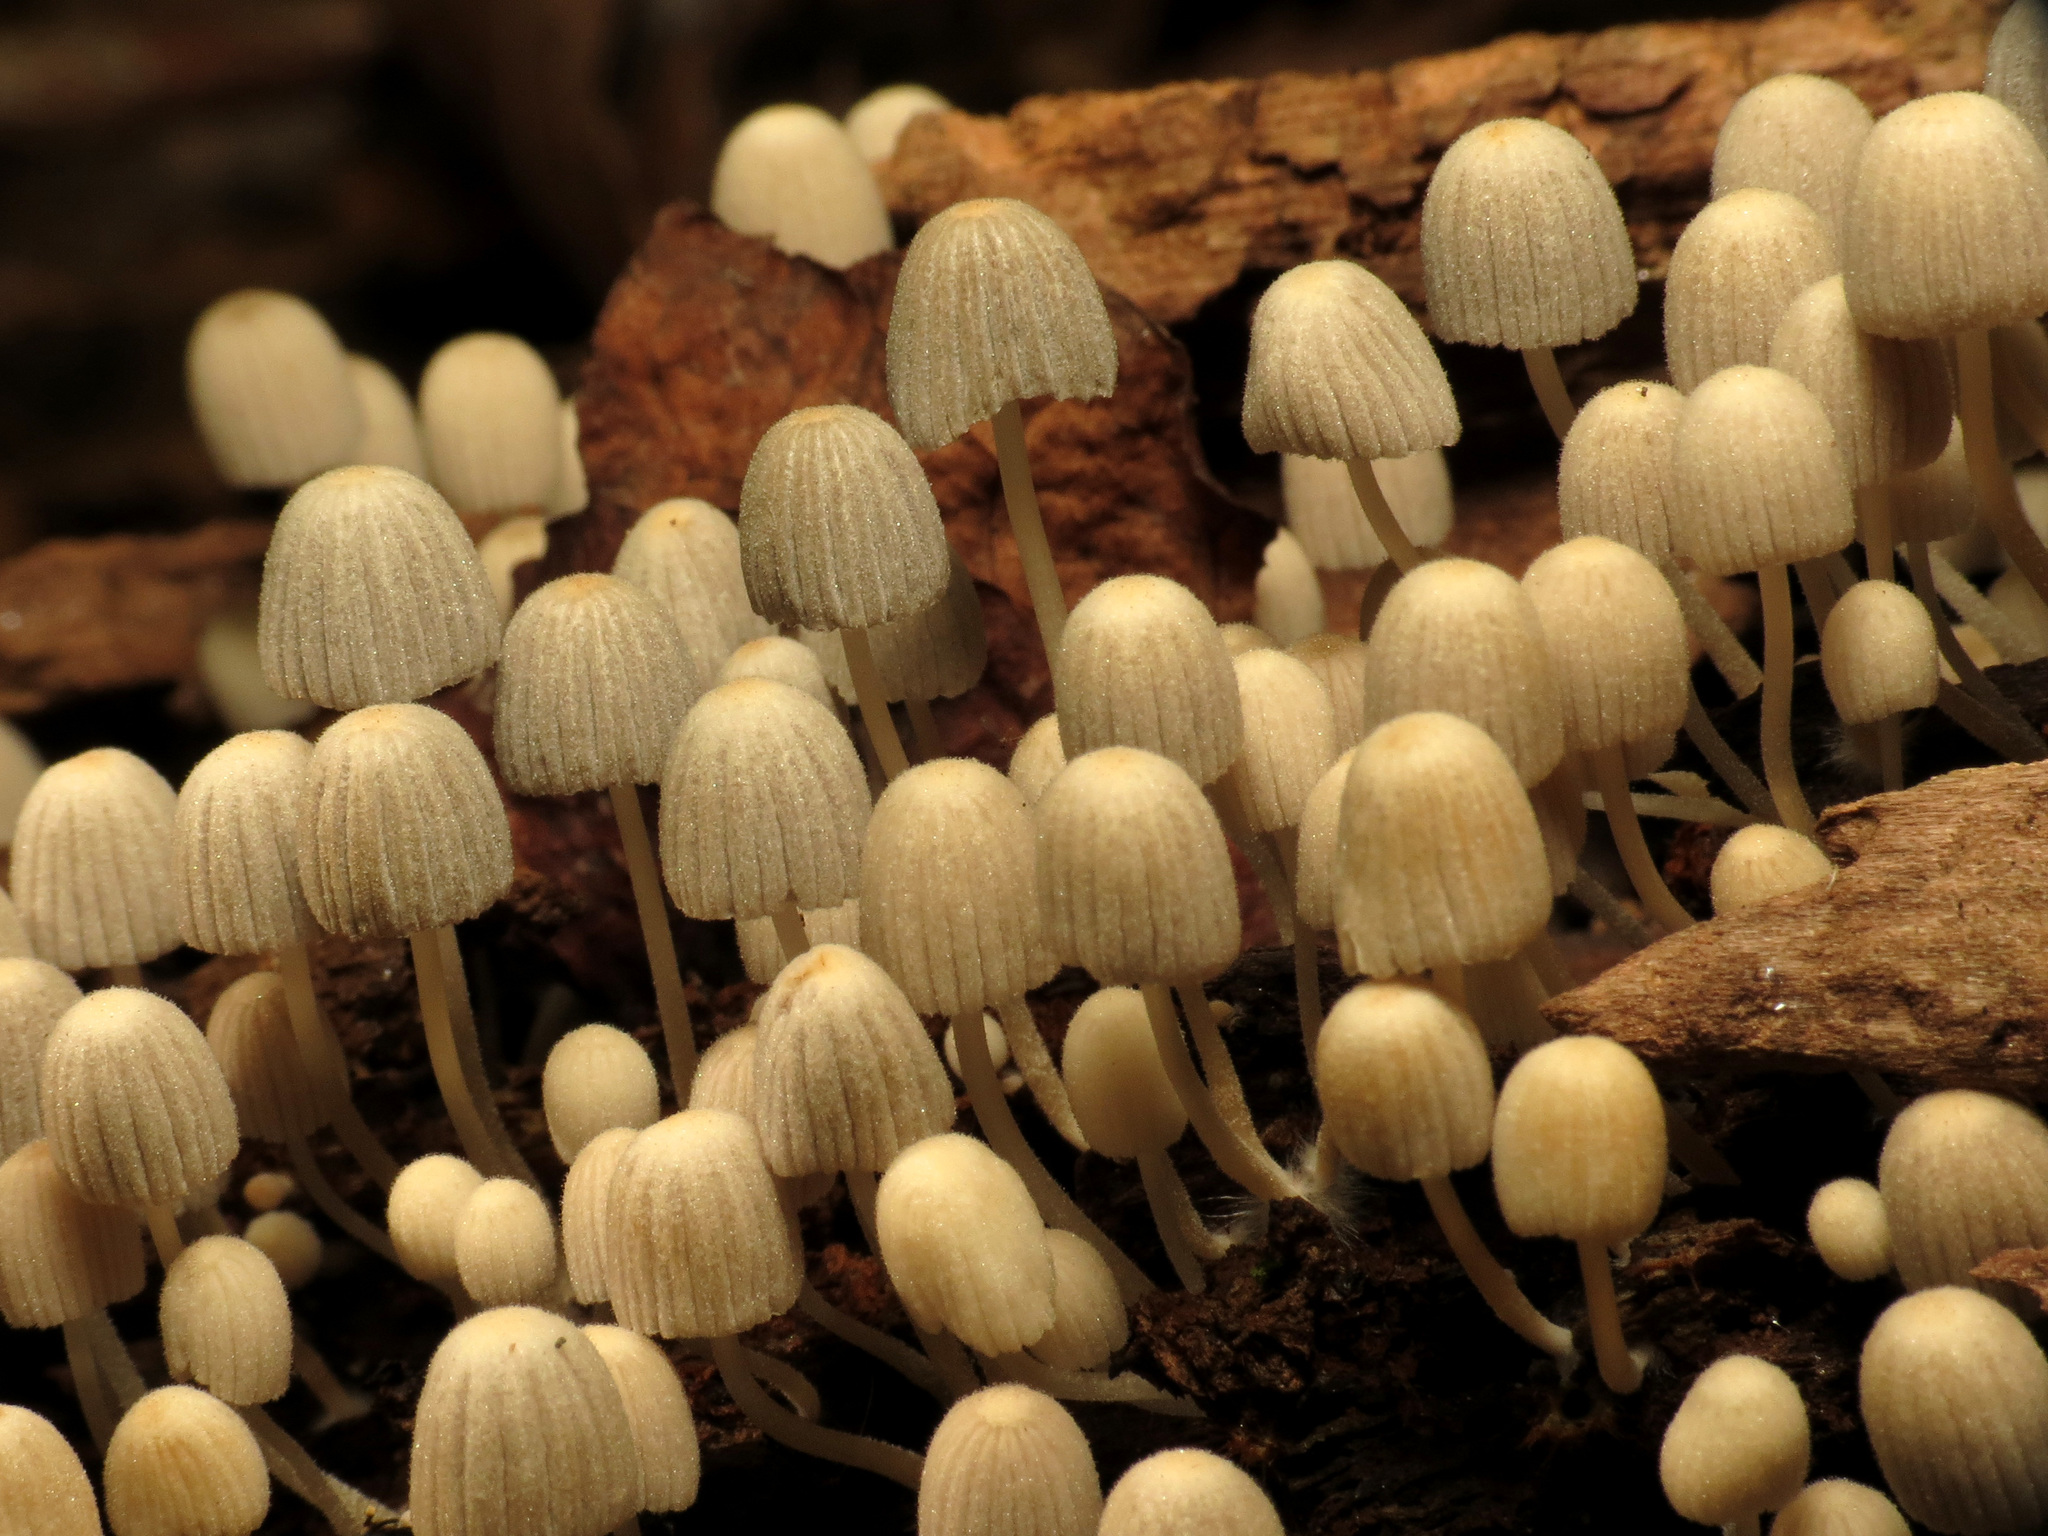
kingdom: Fungi
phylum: Basidiomycota
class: Agaricomycetes
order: Agaricales
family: Psathyrellaceae
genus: Coprinellus
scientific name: Coprinellus disseminatus
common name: Fairies' bonnets
